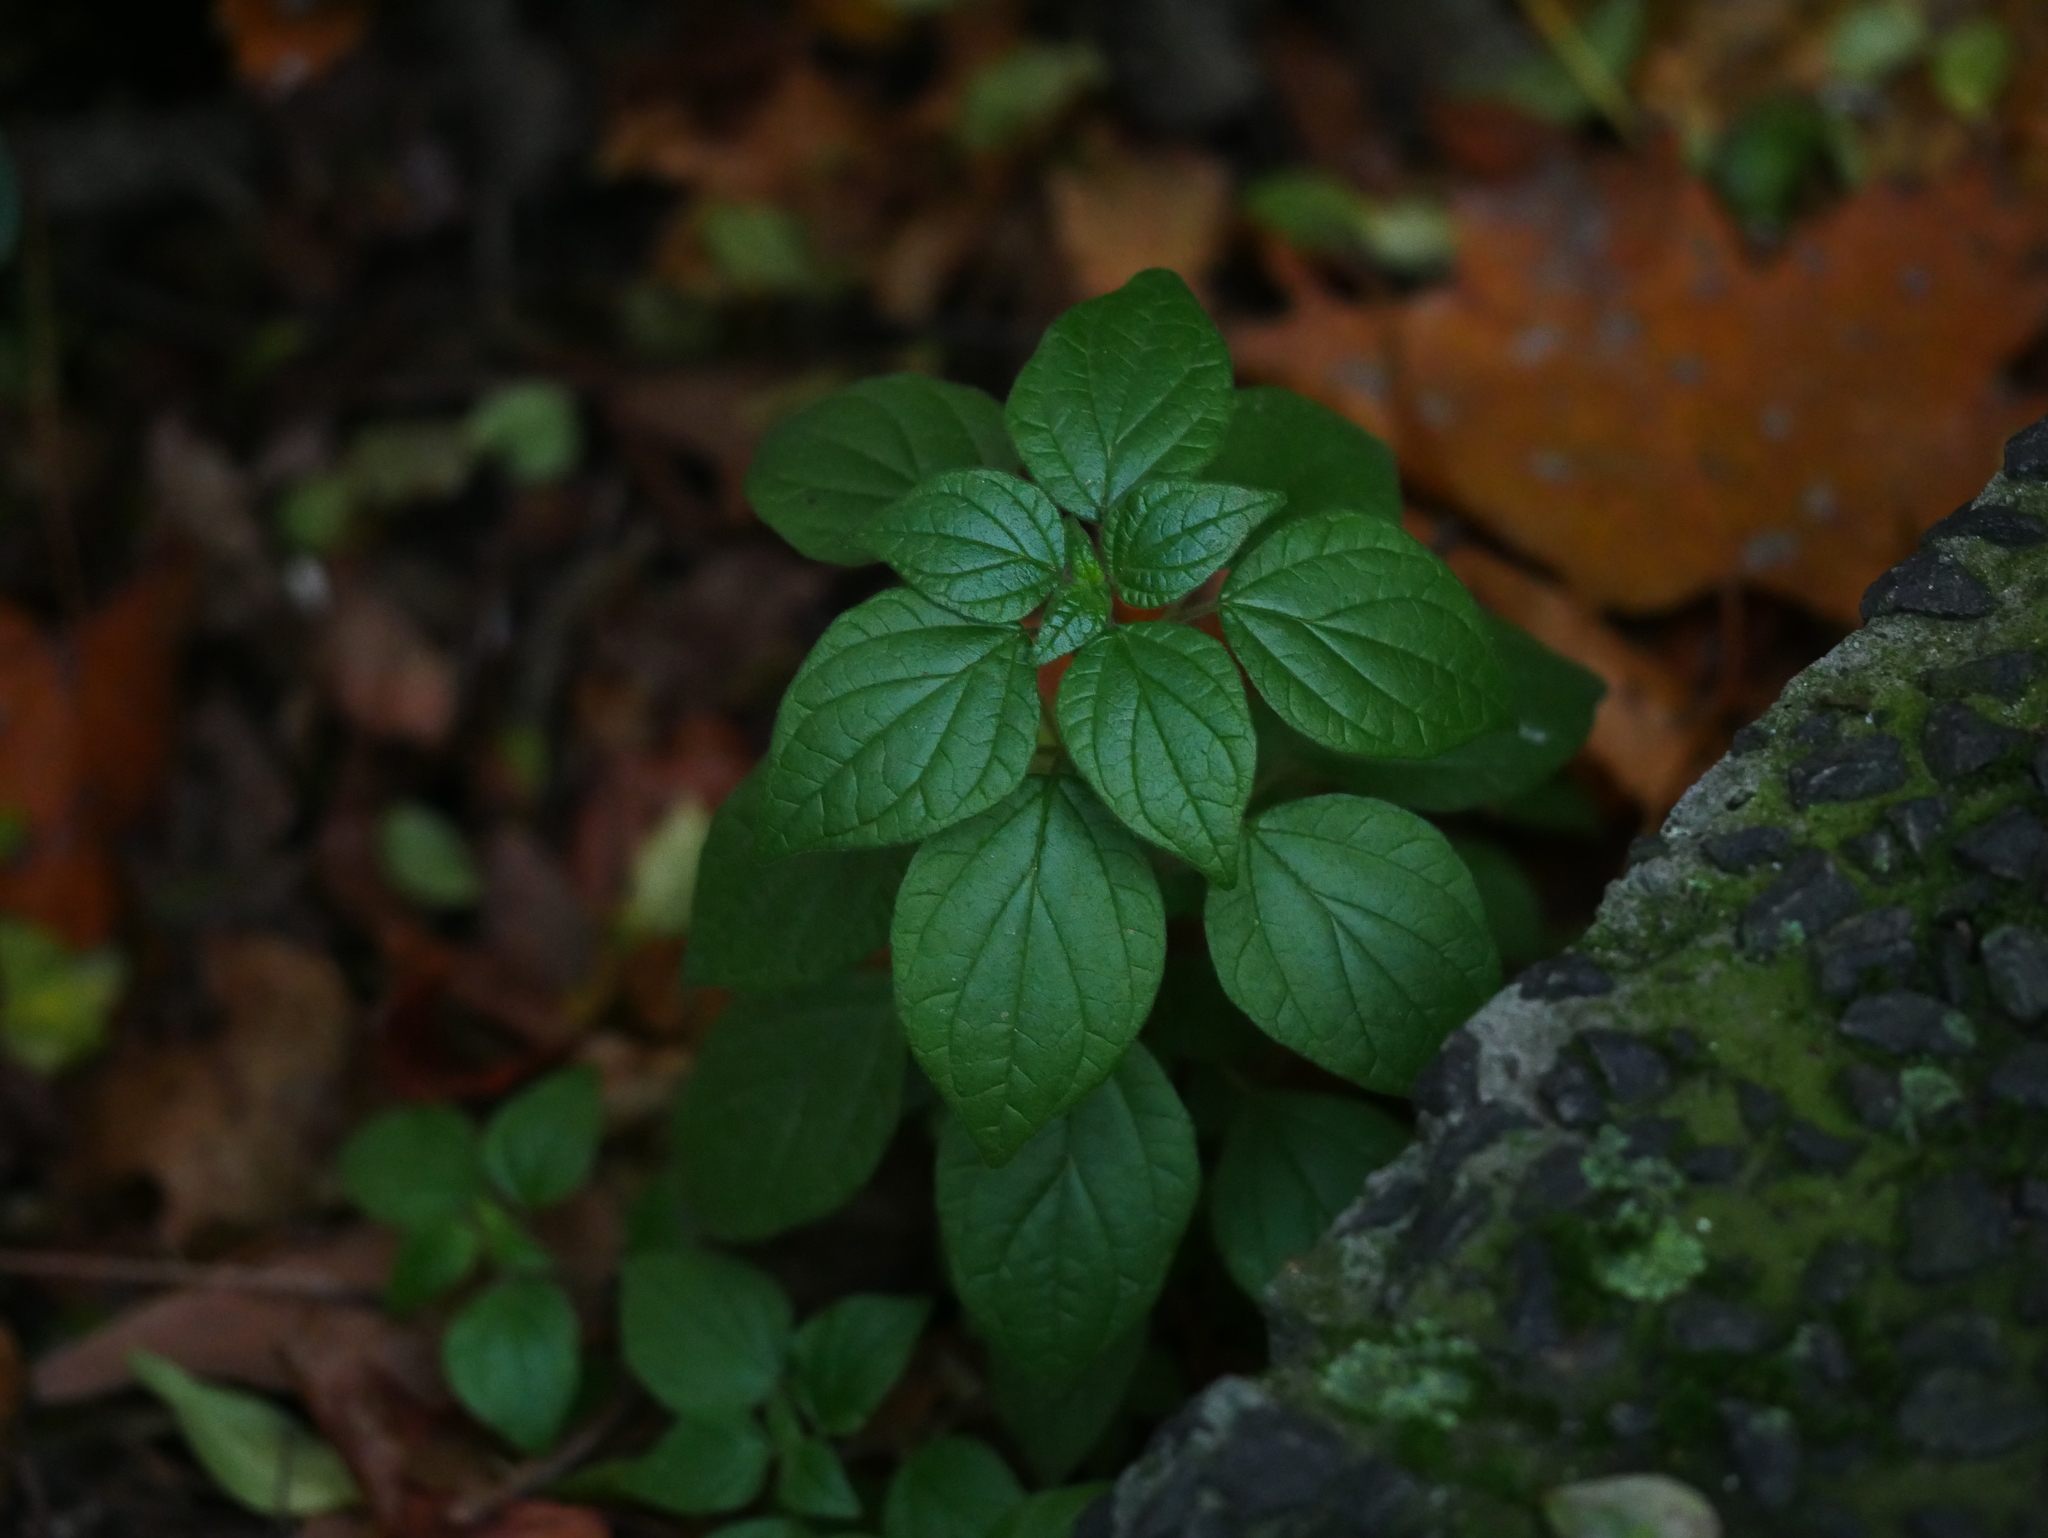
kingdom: Plantae
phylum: Tracheophyta
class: Magnoliopsida
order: Rosales
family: Urticaceae
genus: Parietaria
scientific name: Parietaria judaica
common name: Pellitory-of-the-wall
